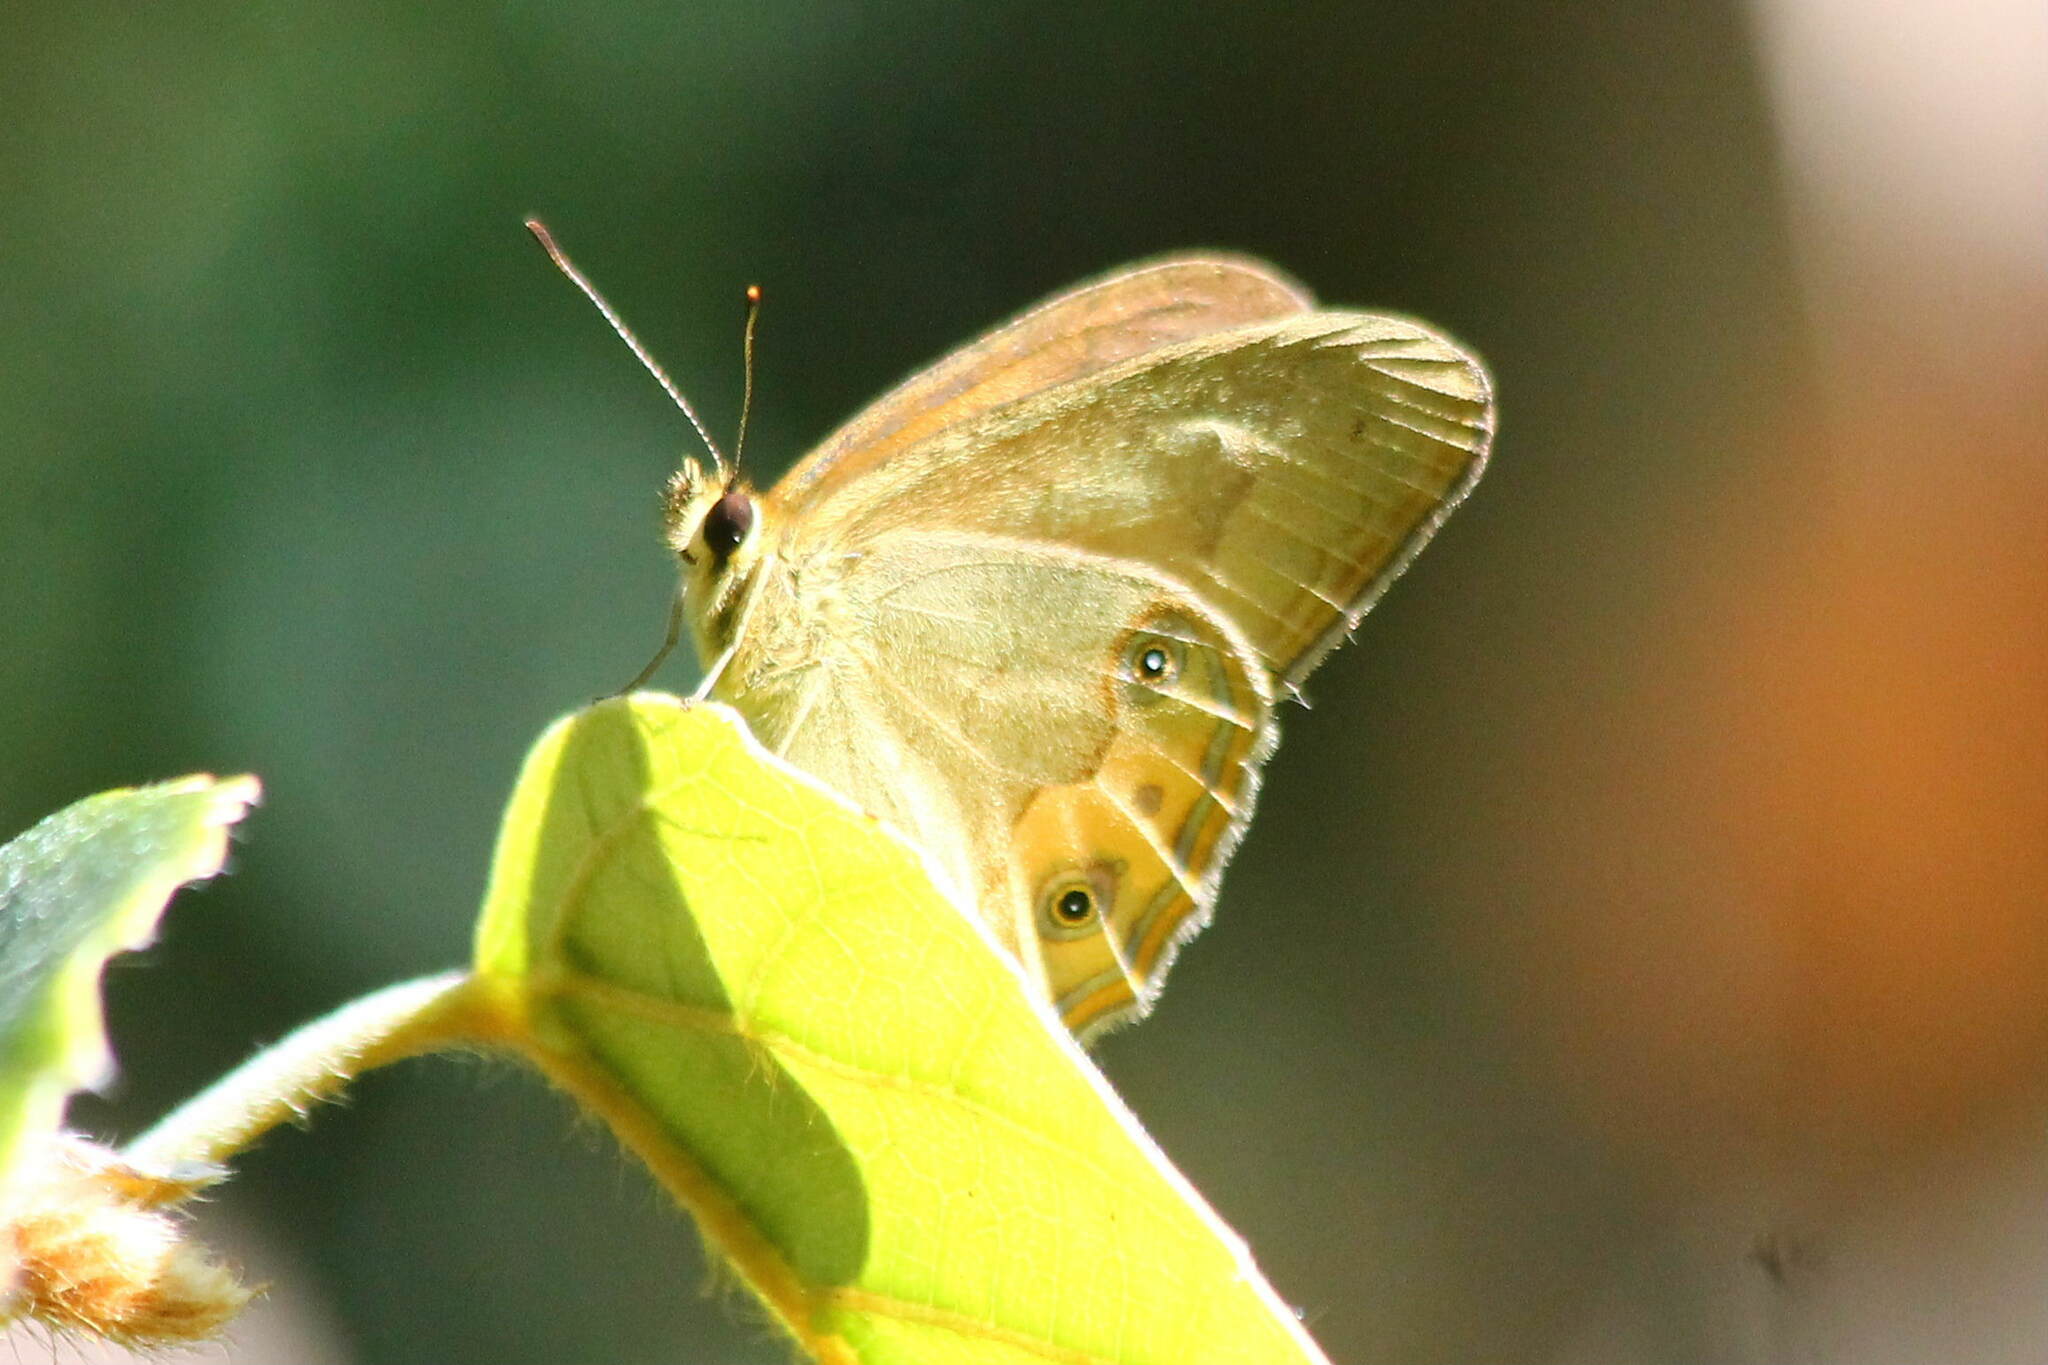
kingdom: Animalia
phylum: Arthropoda
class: Insecta
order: Lepidoptera
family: Nymphalidae
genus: Hypocysta
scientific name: Hypocysta metirius
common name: Brown ringlet
